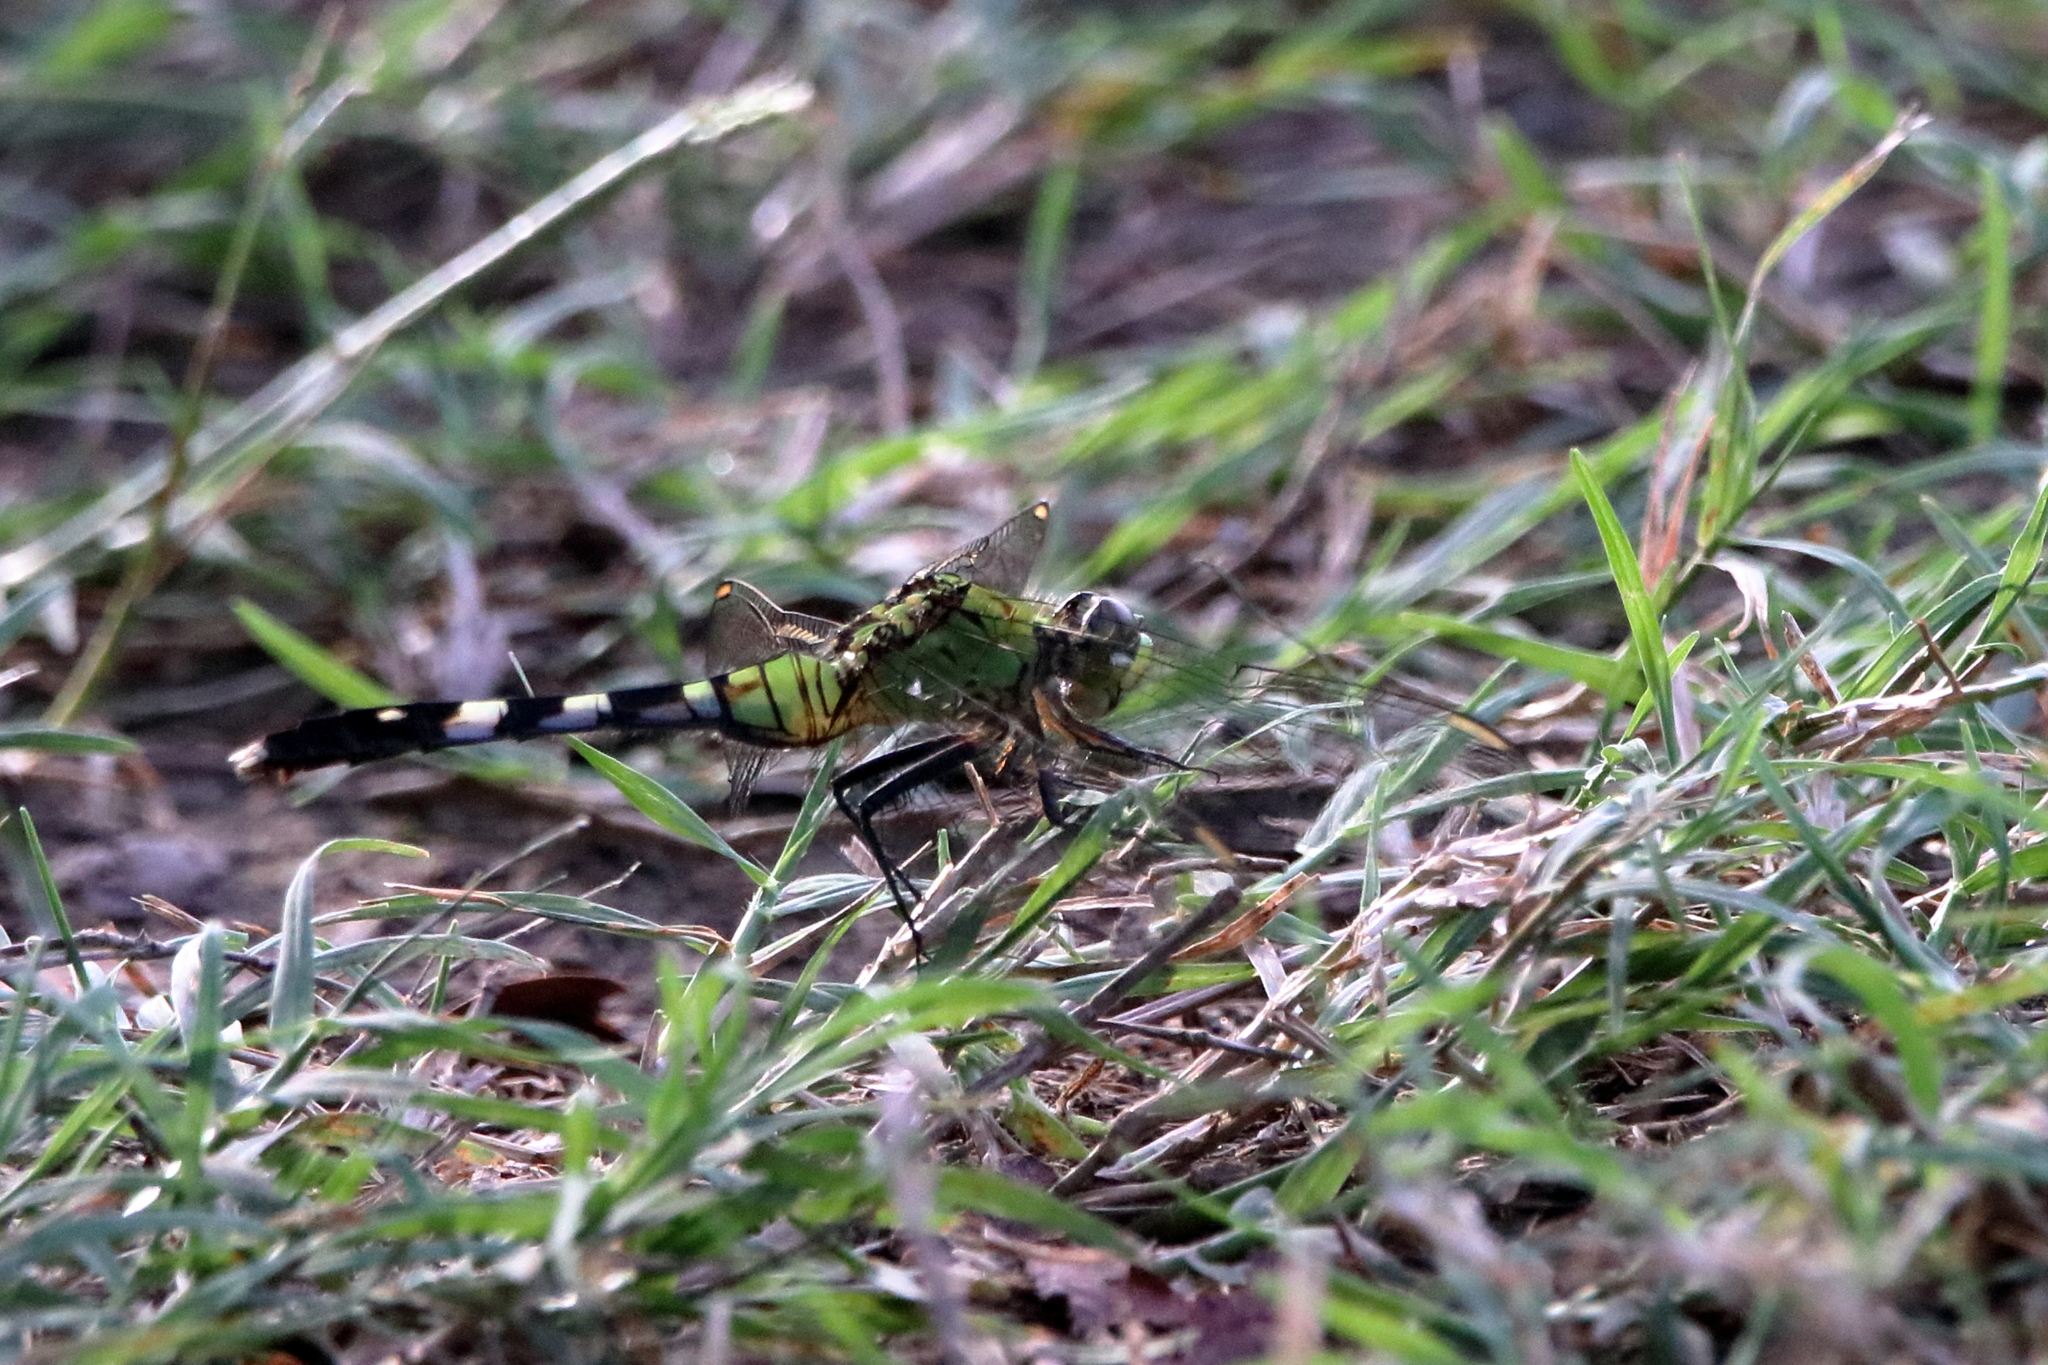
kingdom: Animalia
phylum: Arthropoda
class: Insecta
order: Odonata
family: Libellulidae
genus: Erythemis
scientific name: Erythemis simplicicollis
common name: Eastern pondhawk
